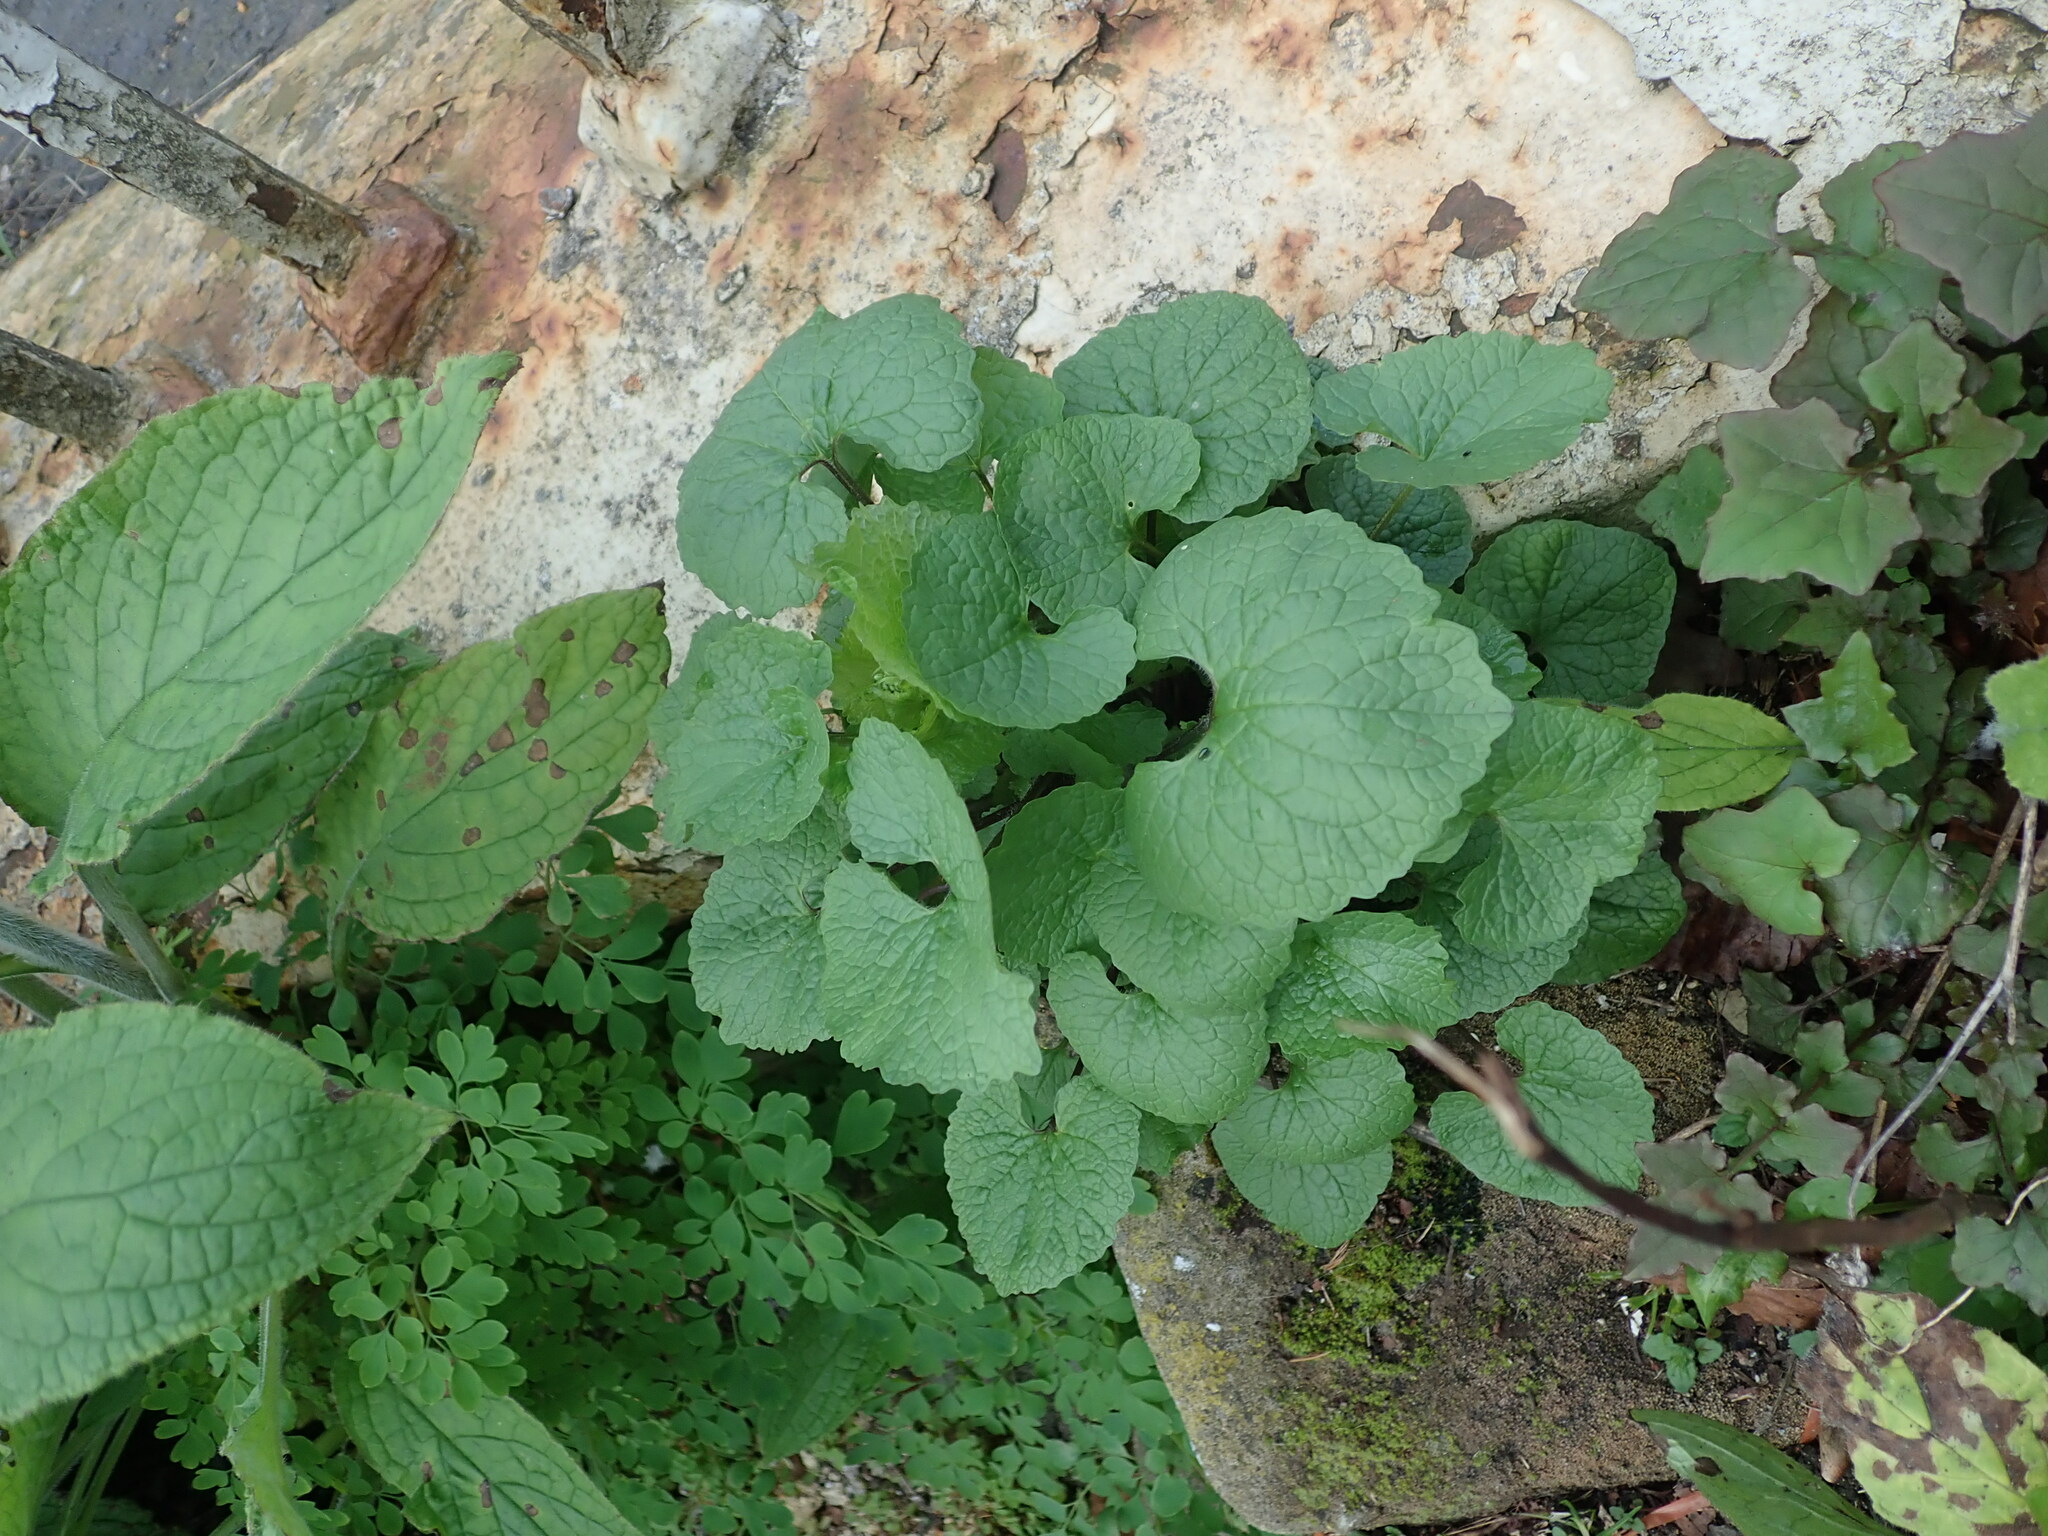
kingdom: Plantae
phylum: Tracheophyta
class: Magnoliopsida
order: Brassicales
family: Brassicaceae
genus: Alliaria
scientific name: Alliaria petiolata
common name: Garlic mustard
